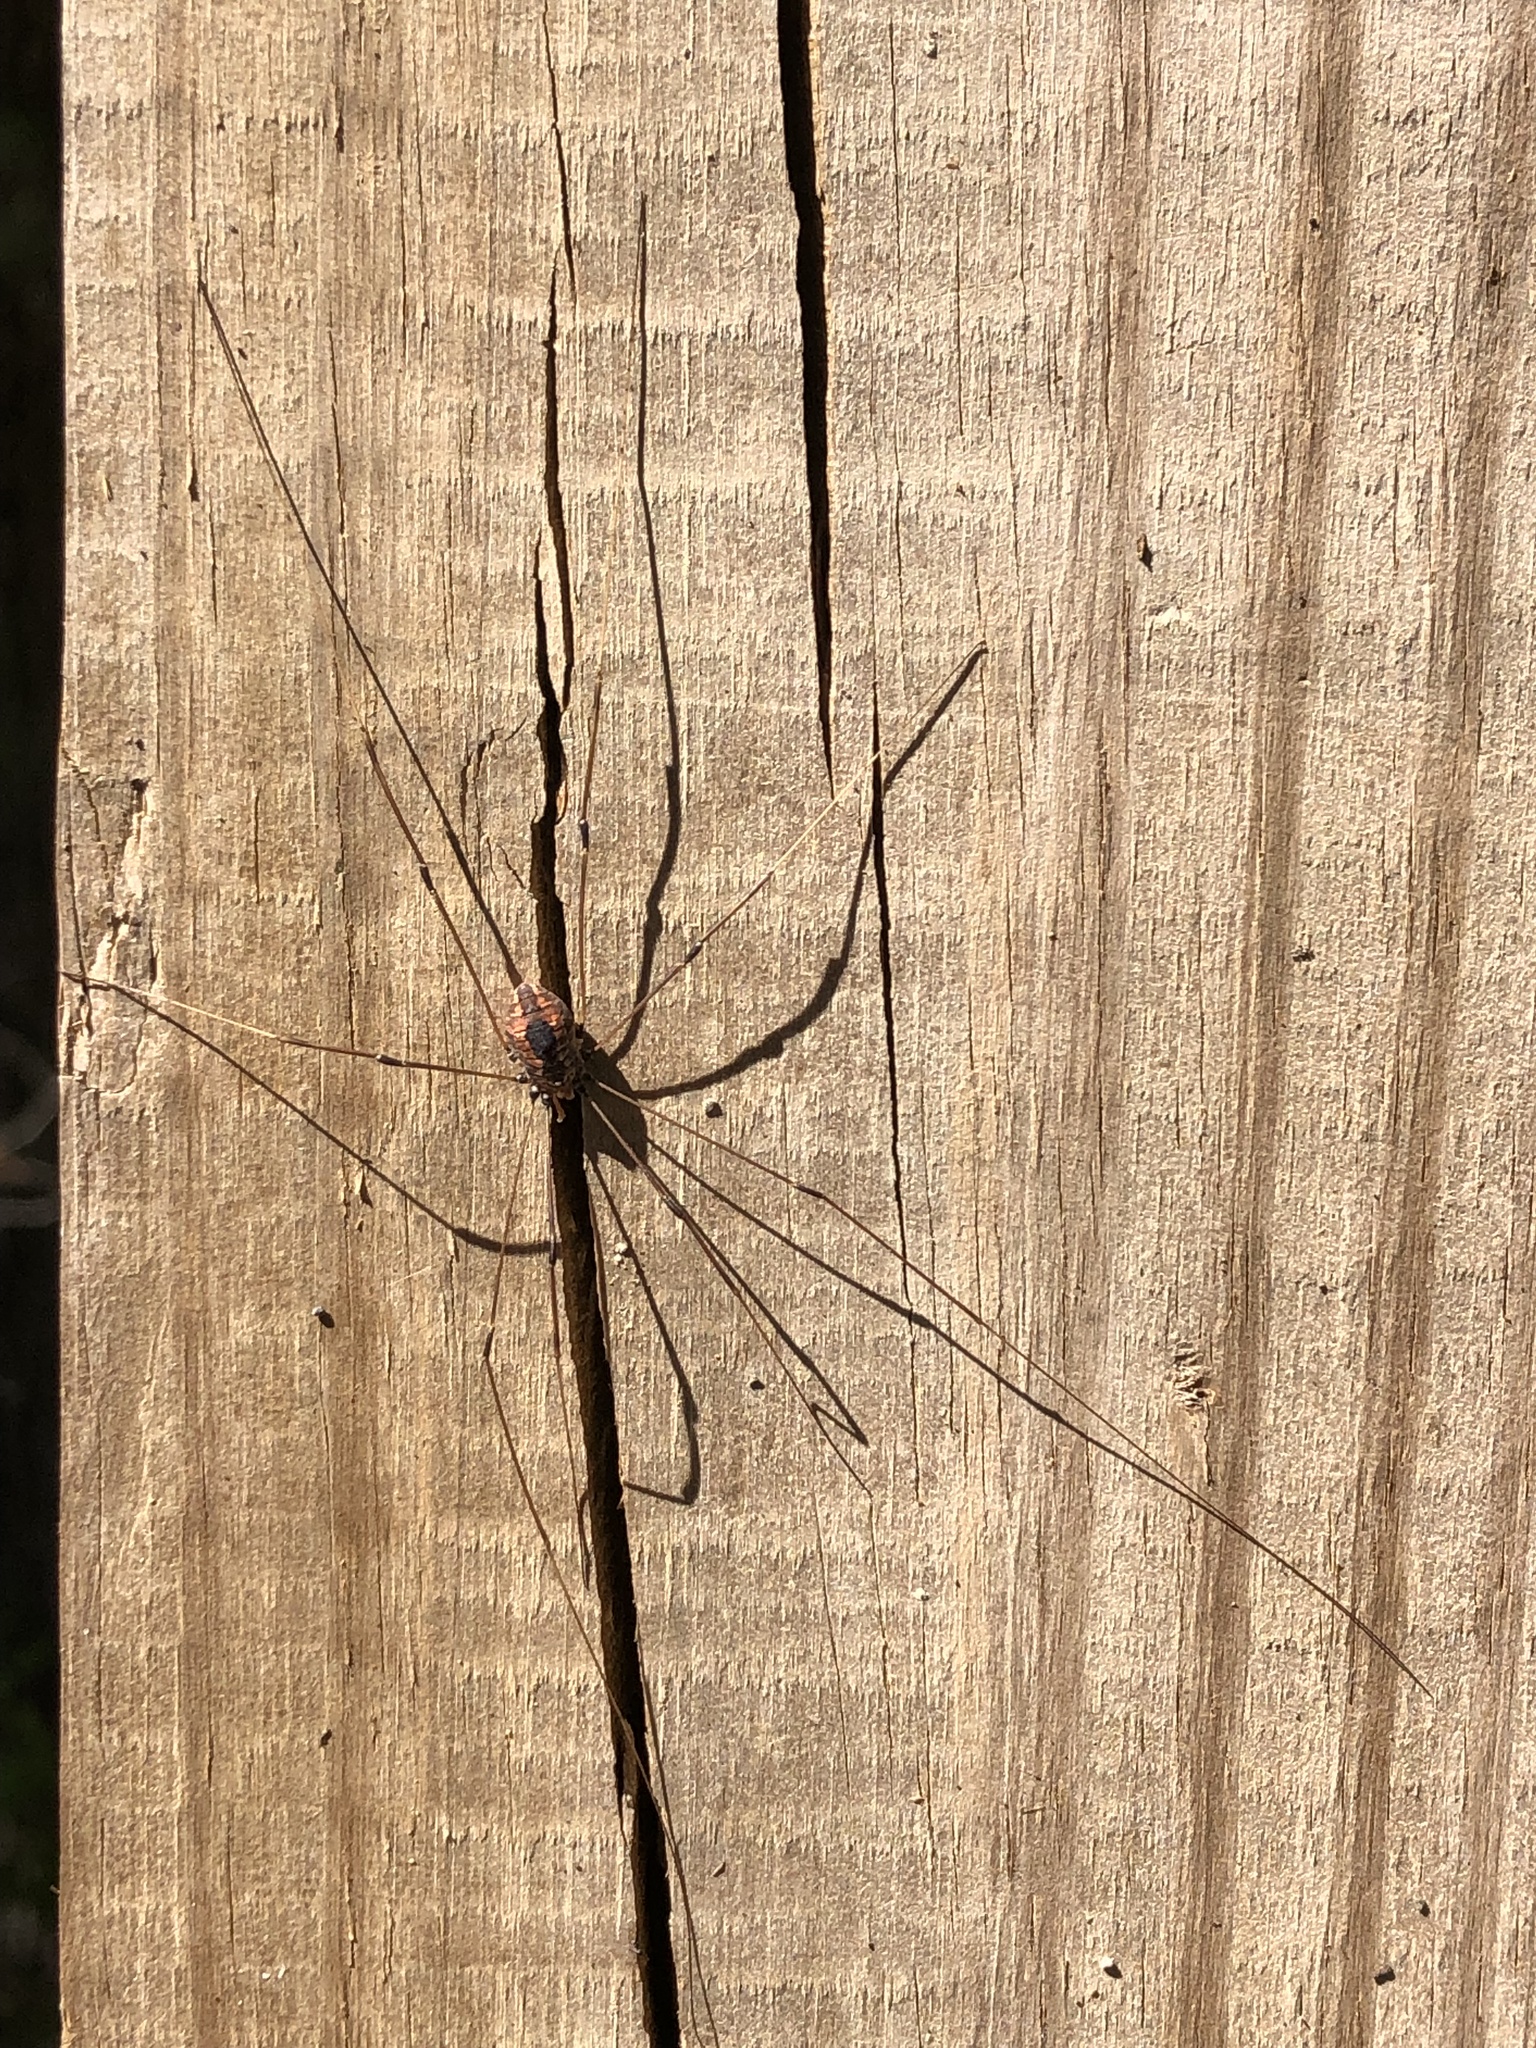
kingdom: Animalia
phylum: Arthropoda
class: Arachnida
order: Opiliones
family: Sclerosomatidae
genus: Leiobunum
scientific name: Leiobunum vittatum
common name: Eastern harvestman
